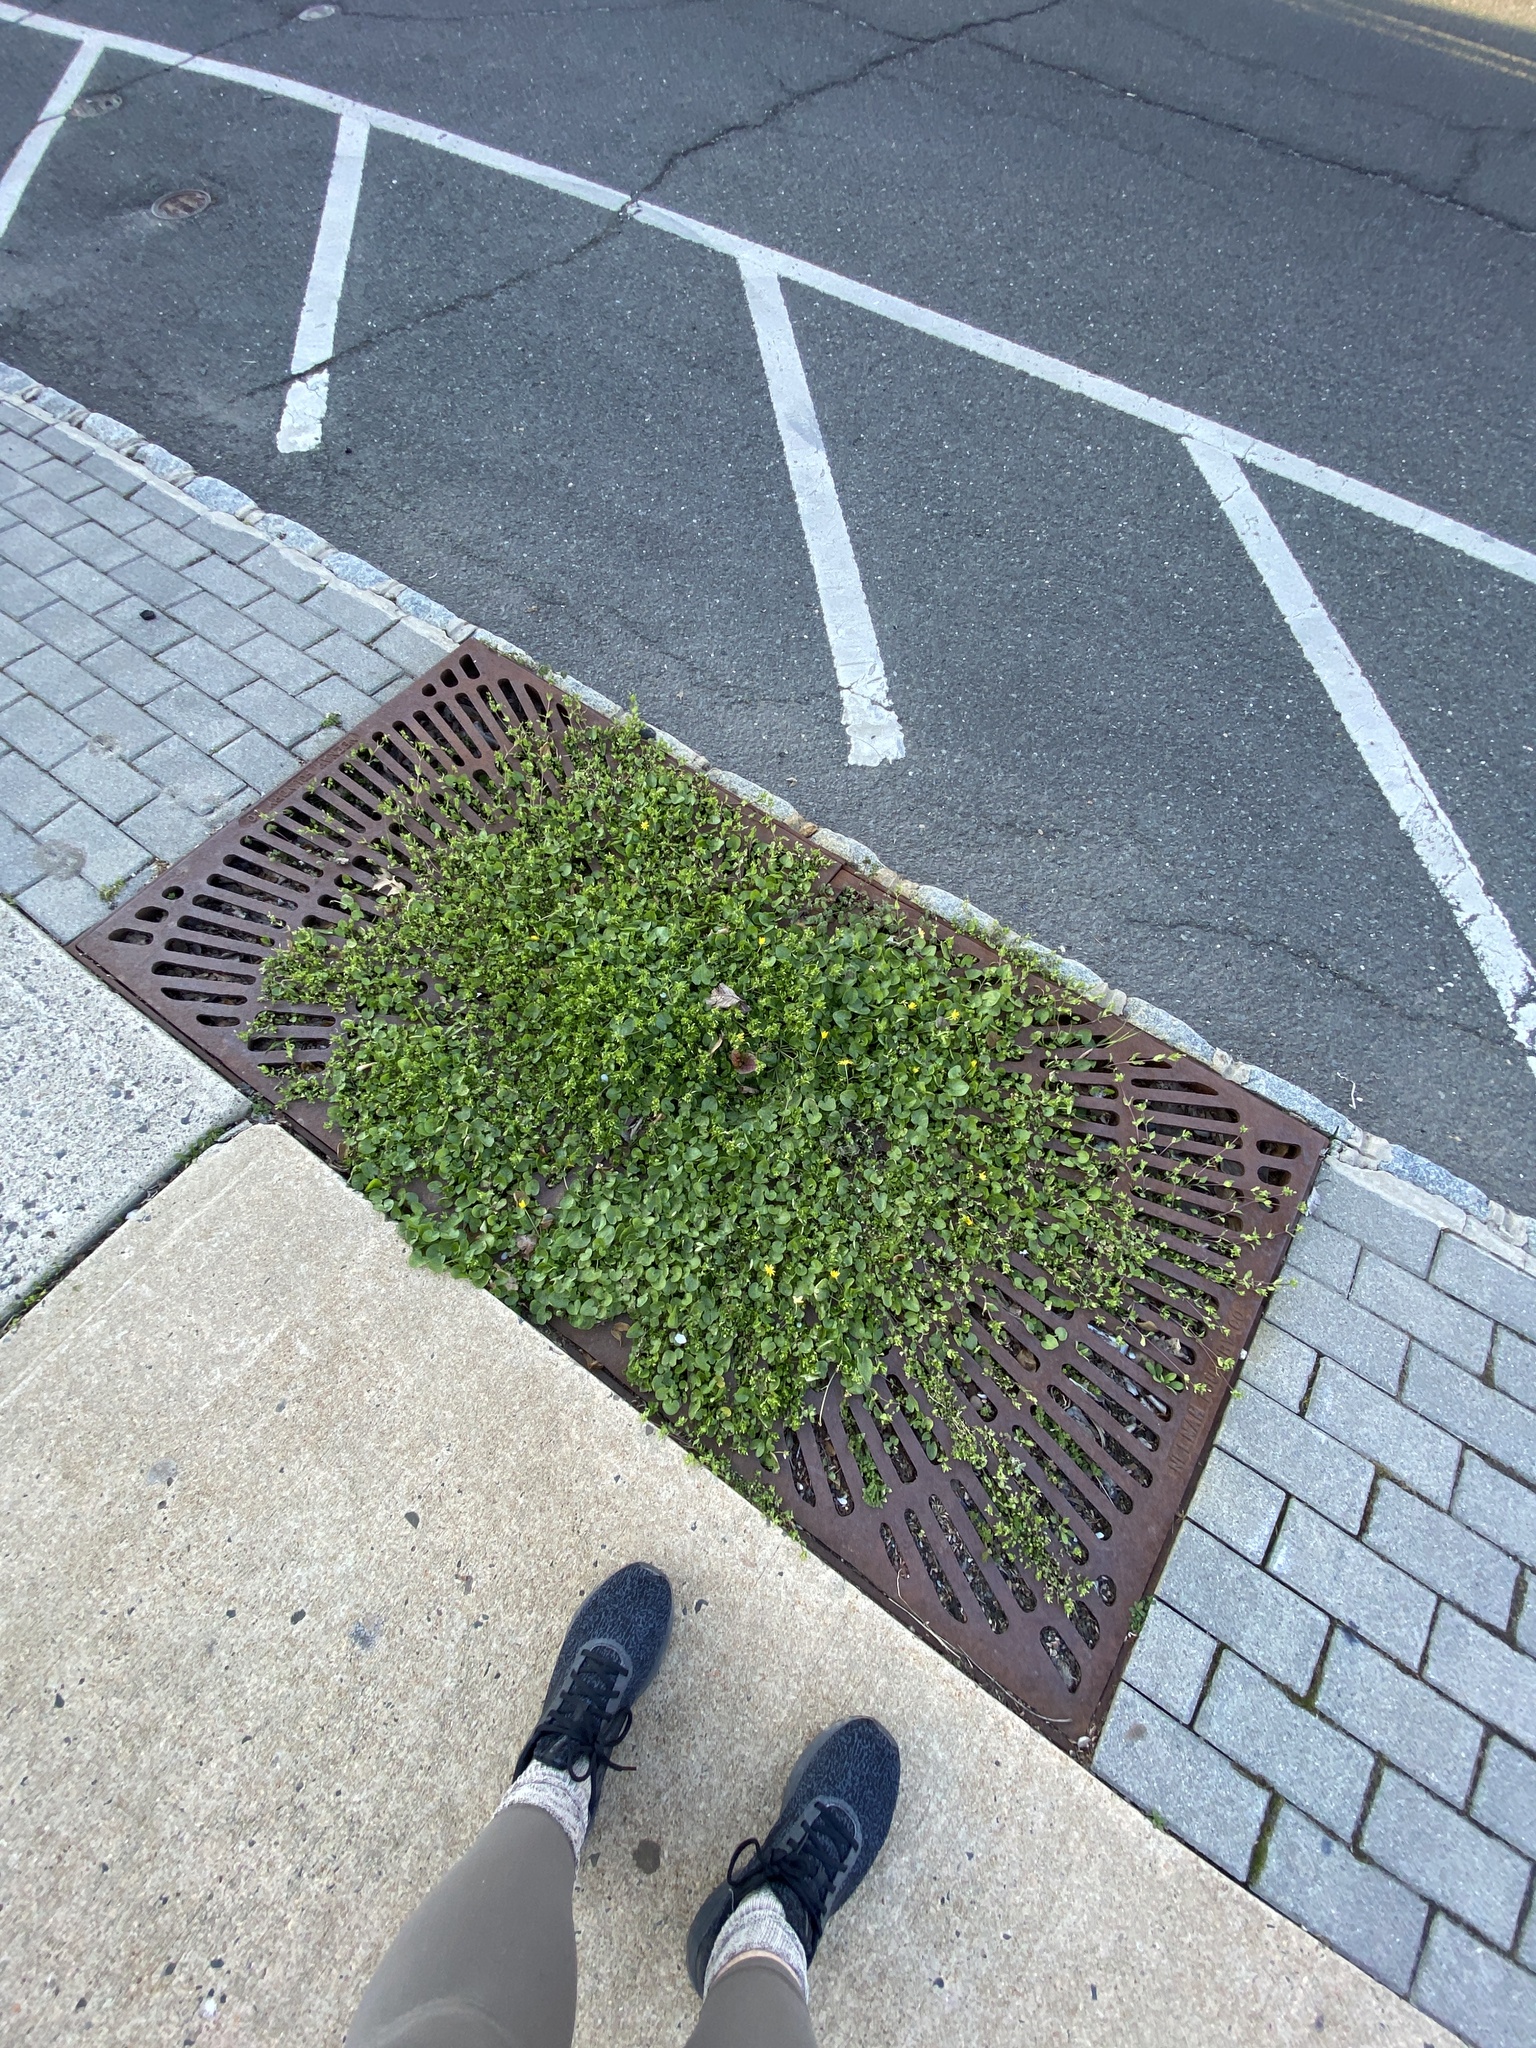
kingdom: Plantae
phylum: Tracheophyta
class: Magnoliopsida
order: Ranunculales
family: Ranunculaceae
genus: Ficaria
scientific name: Ficaria verna
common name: Lesser celandine
